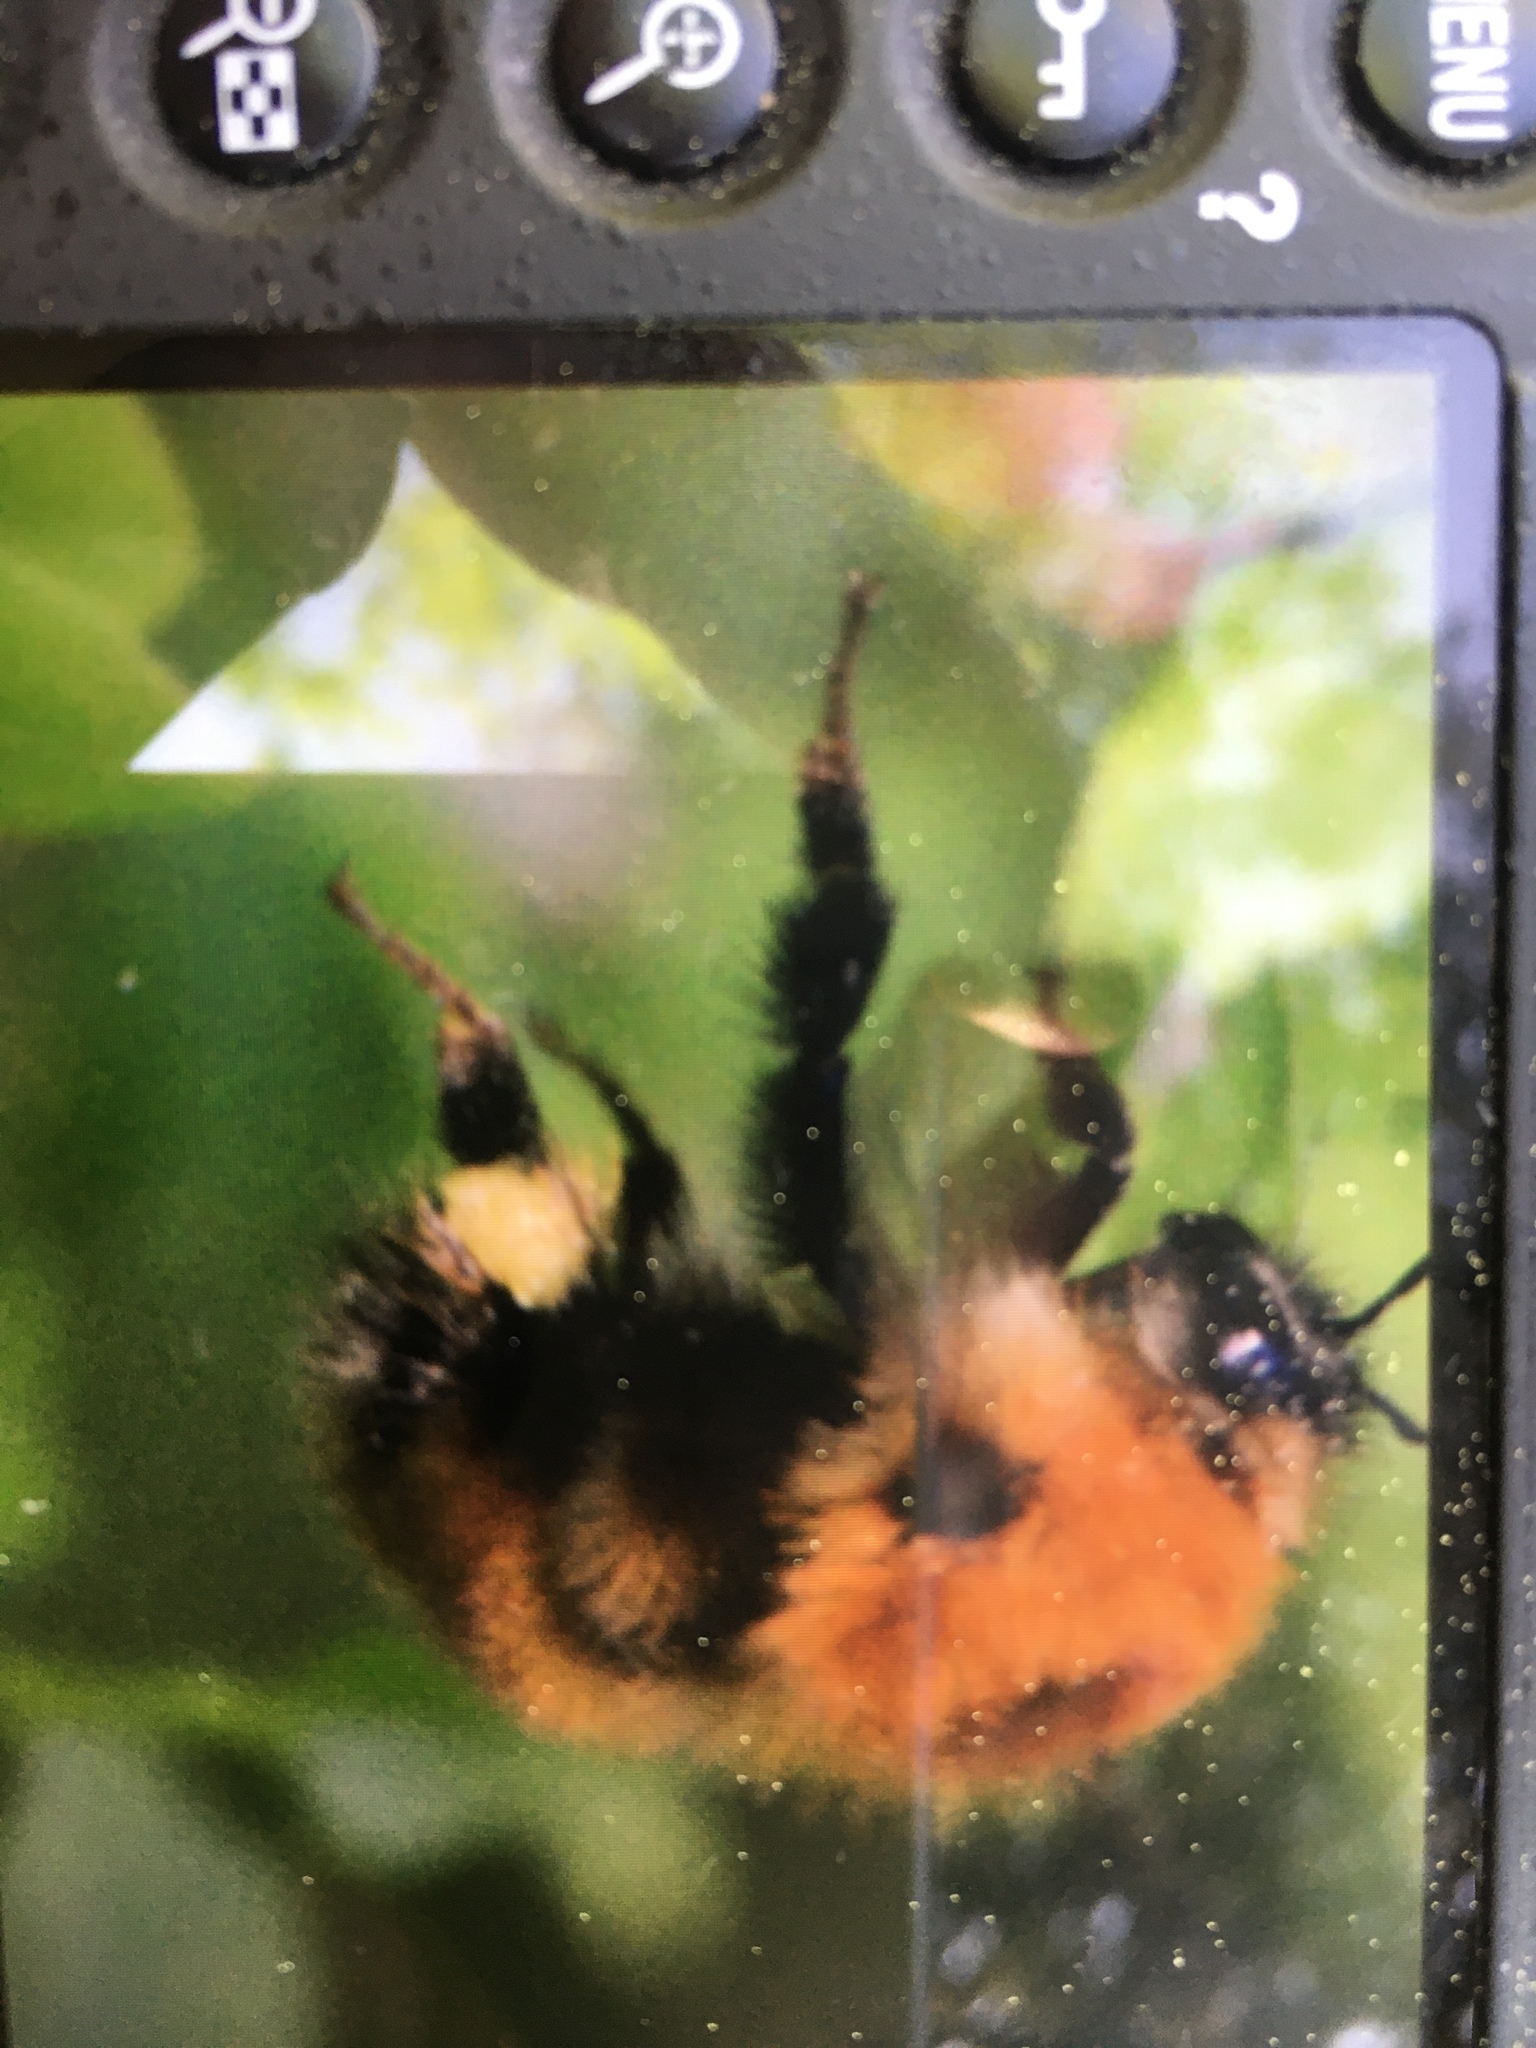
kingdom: Animalia
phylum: Arthropoda
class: Insecta
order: Hymenoptera
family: Apidae
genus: Bombus
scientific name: Bombus schrencki
